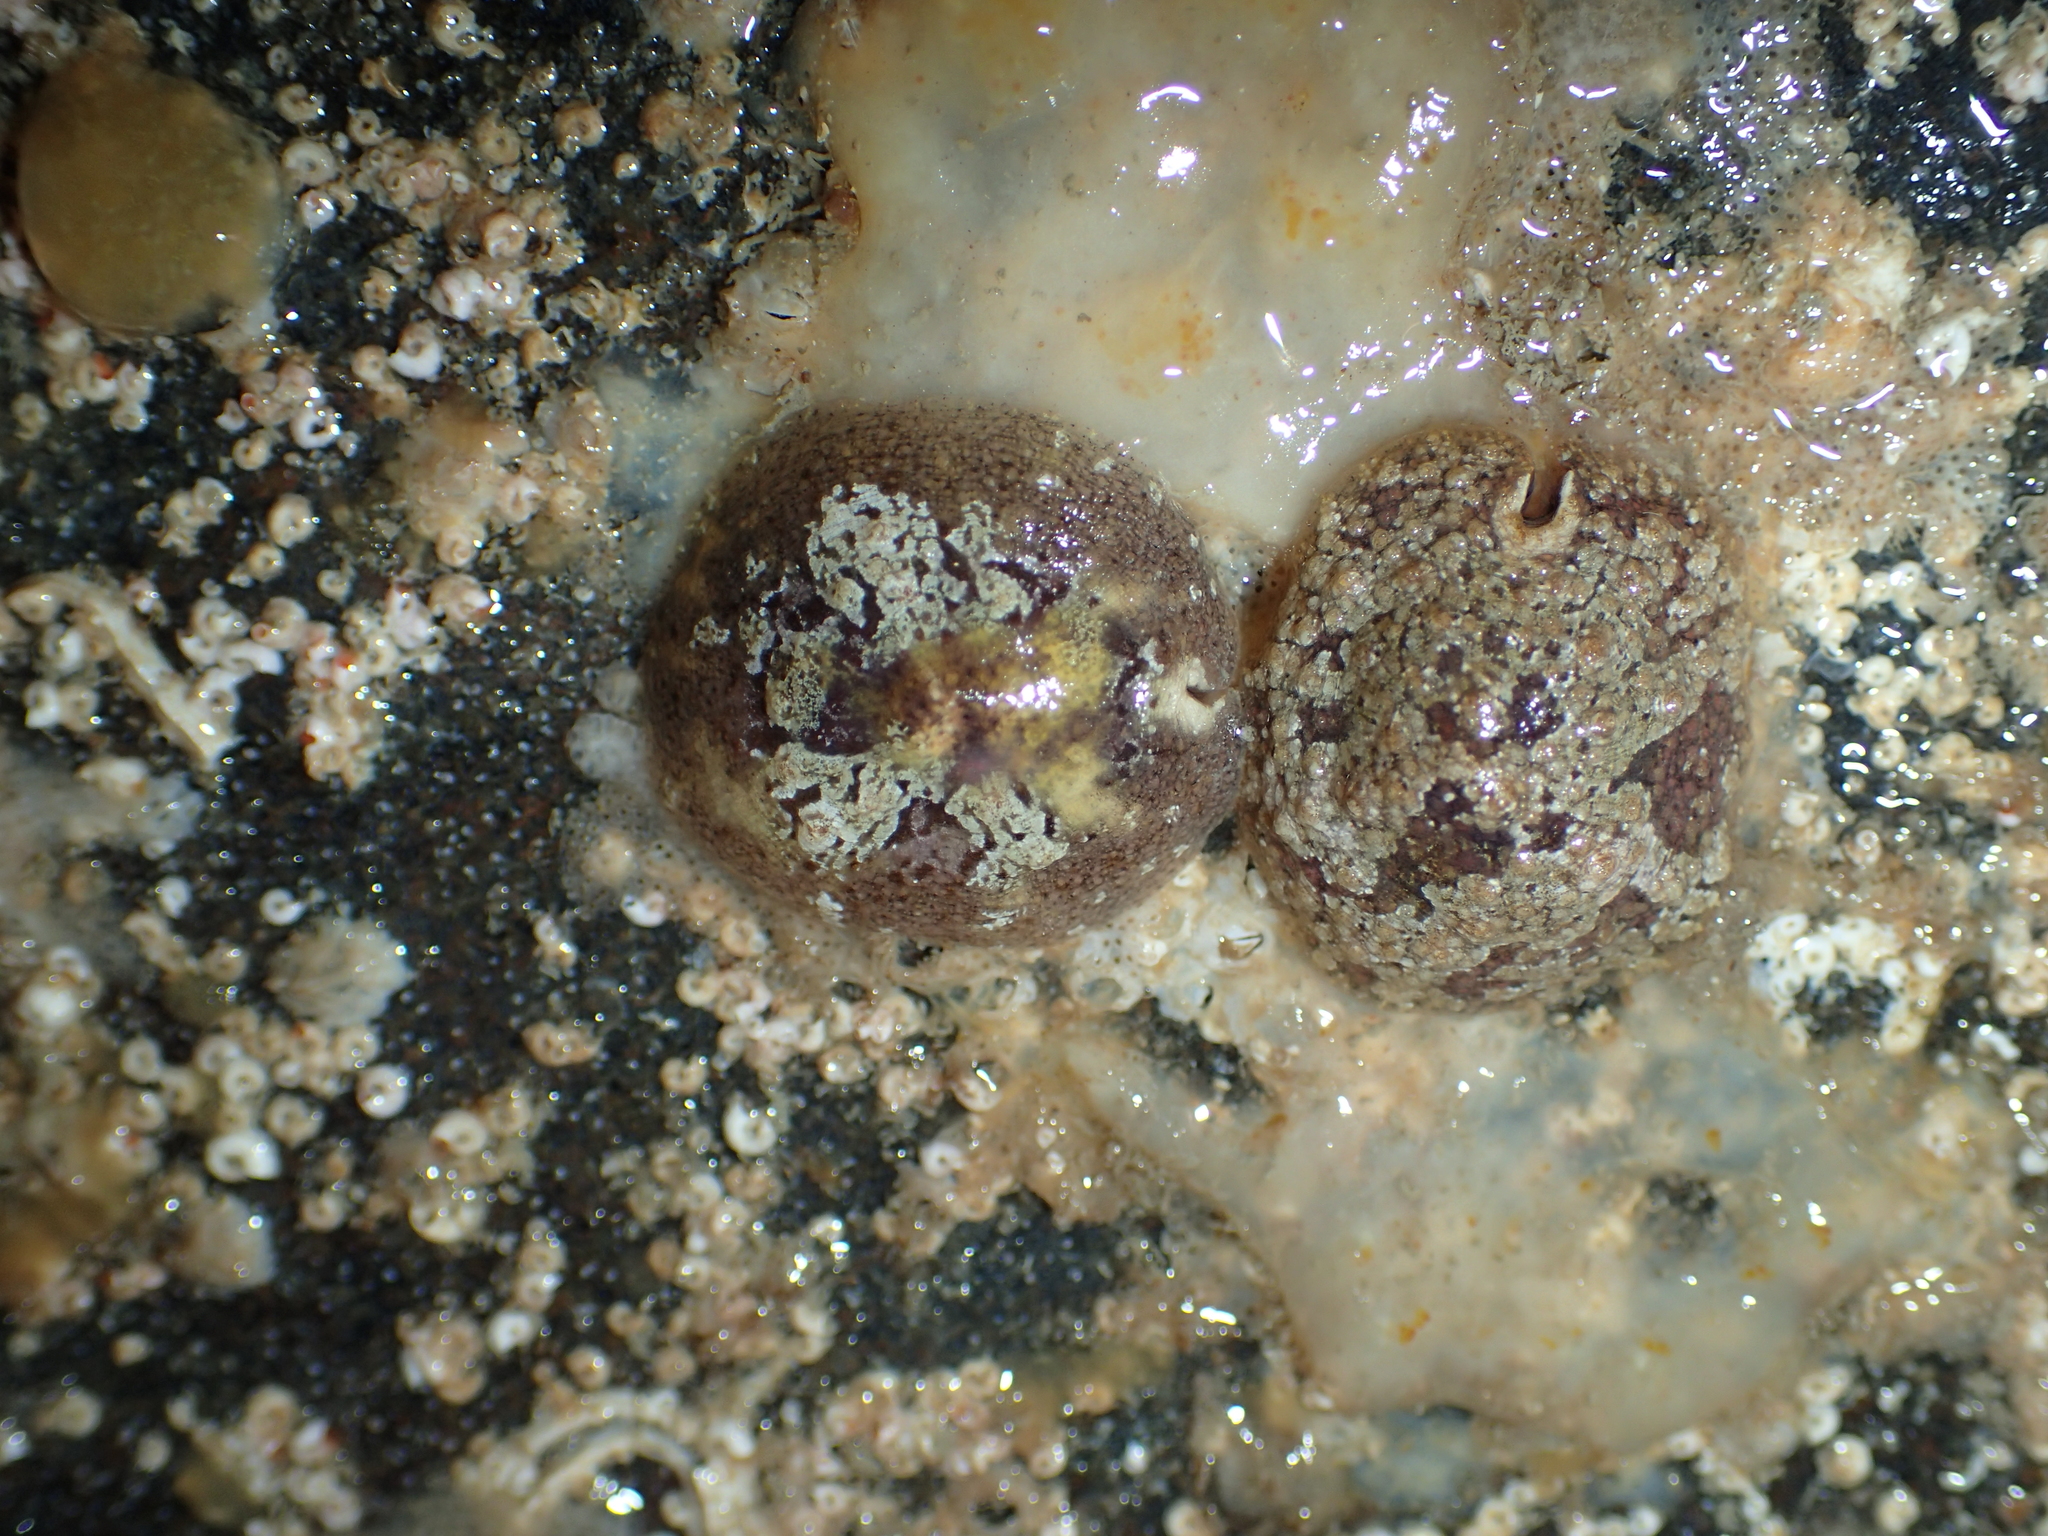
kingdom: Animalia
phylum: Mollusca
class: Gastropoda
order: Littorinimorpha
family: Velutinidae
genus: Marsenia
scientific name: Marsenia perspicua
